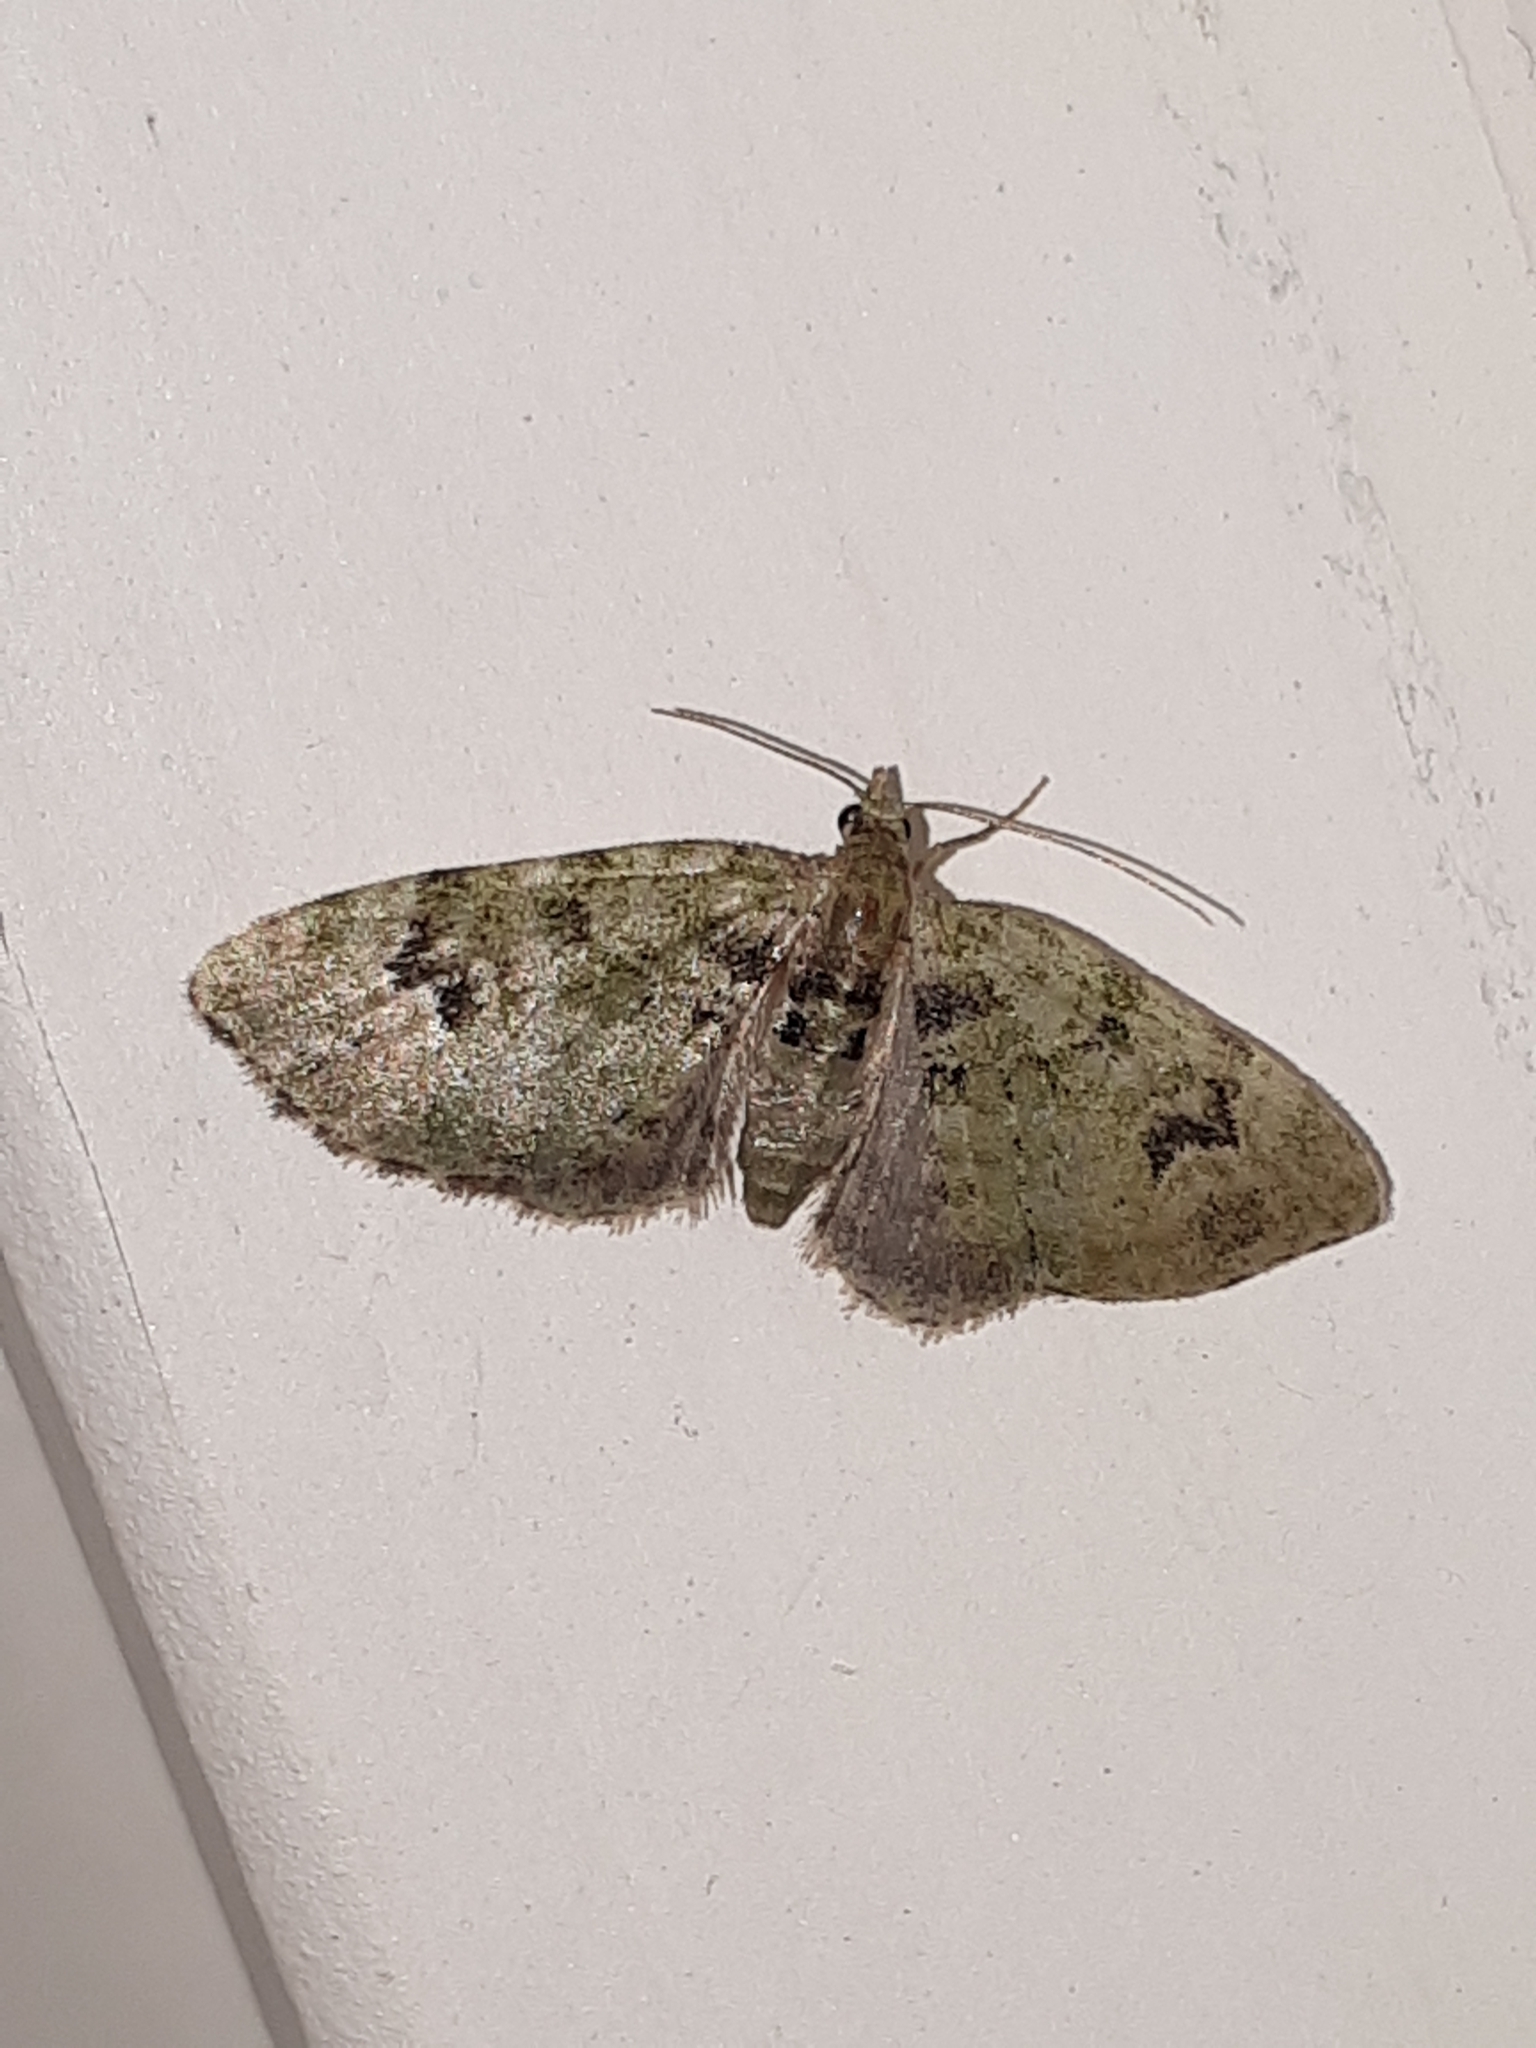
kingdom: Animalia
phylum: Arthropoda
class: Insecta
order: Lepidoptera
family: Geometridae
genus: Chloroclystis
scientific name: Chloroclystis v-ata
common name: V-pug
